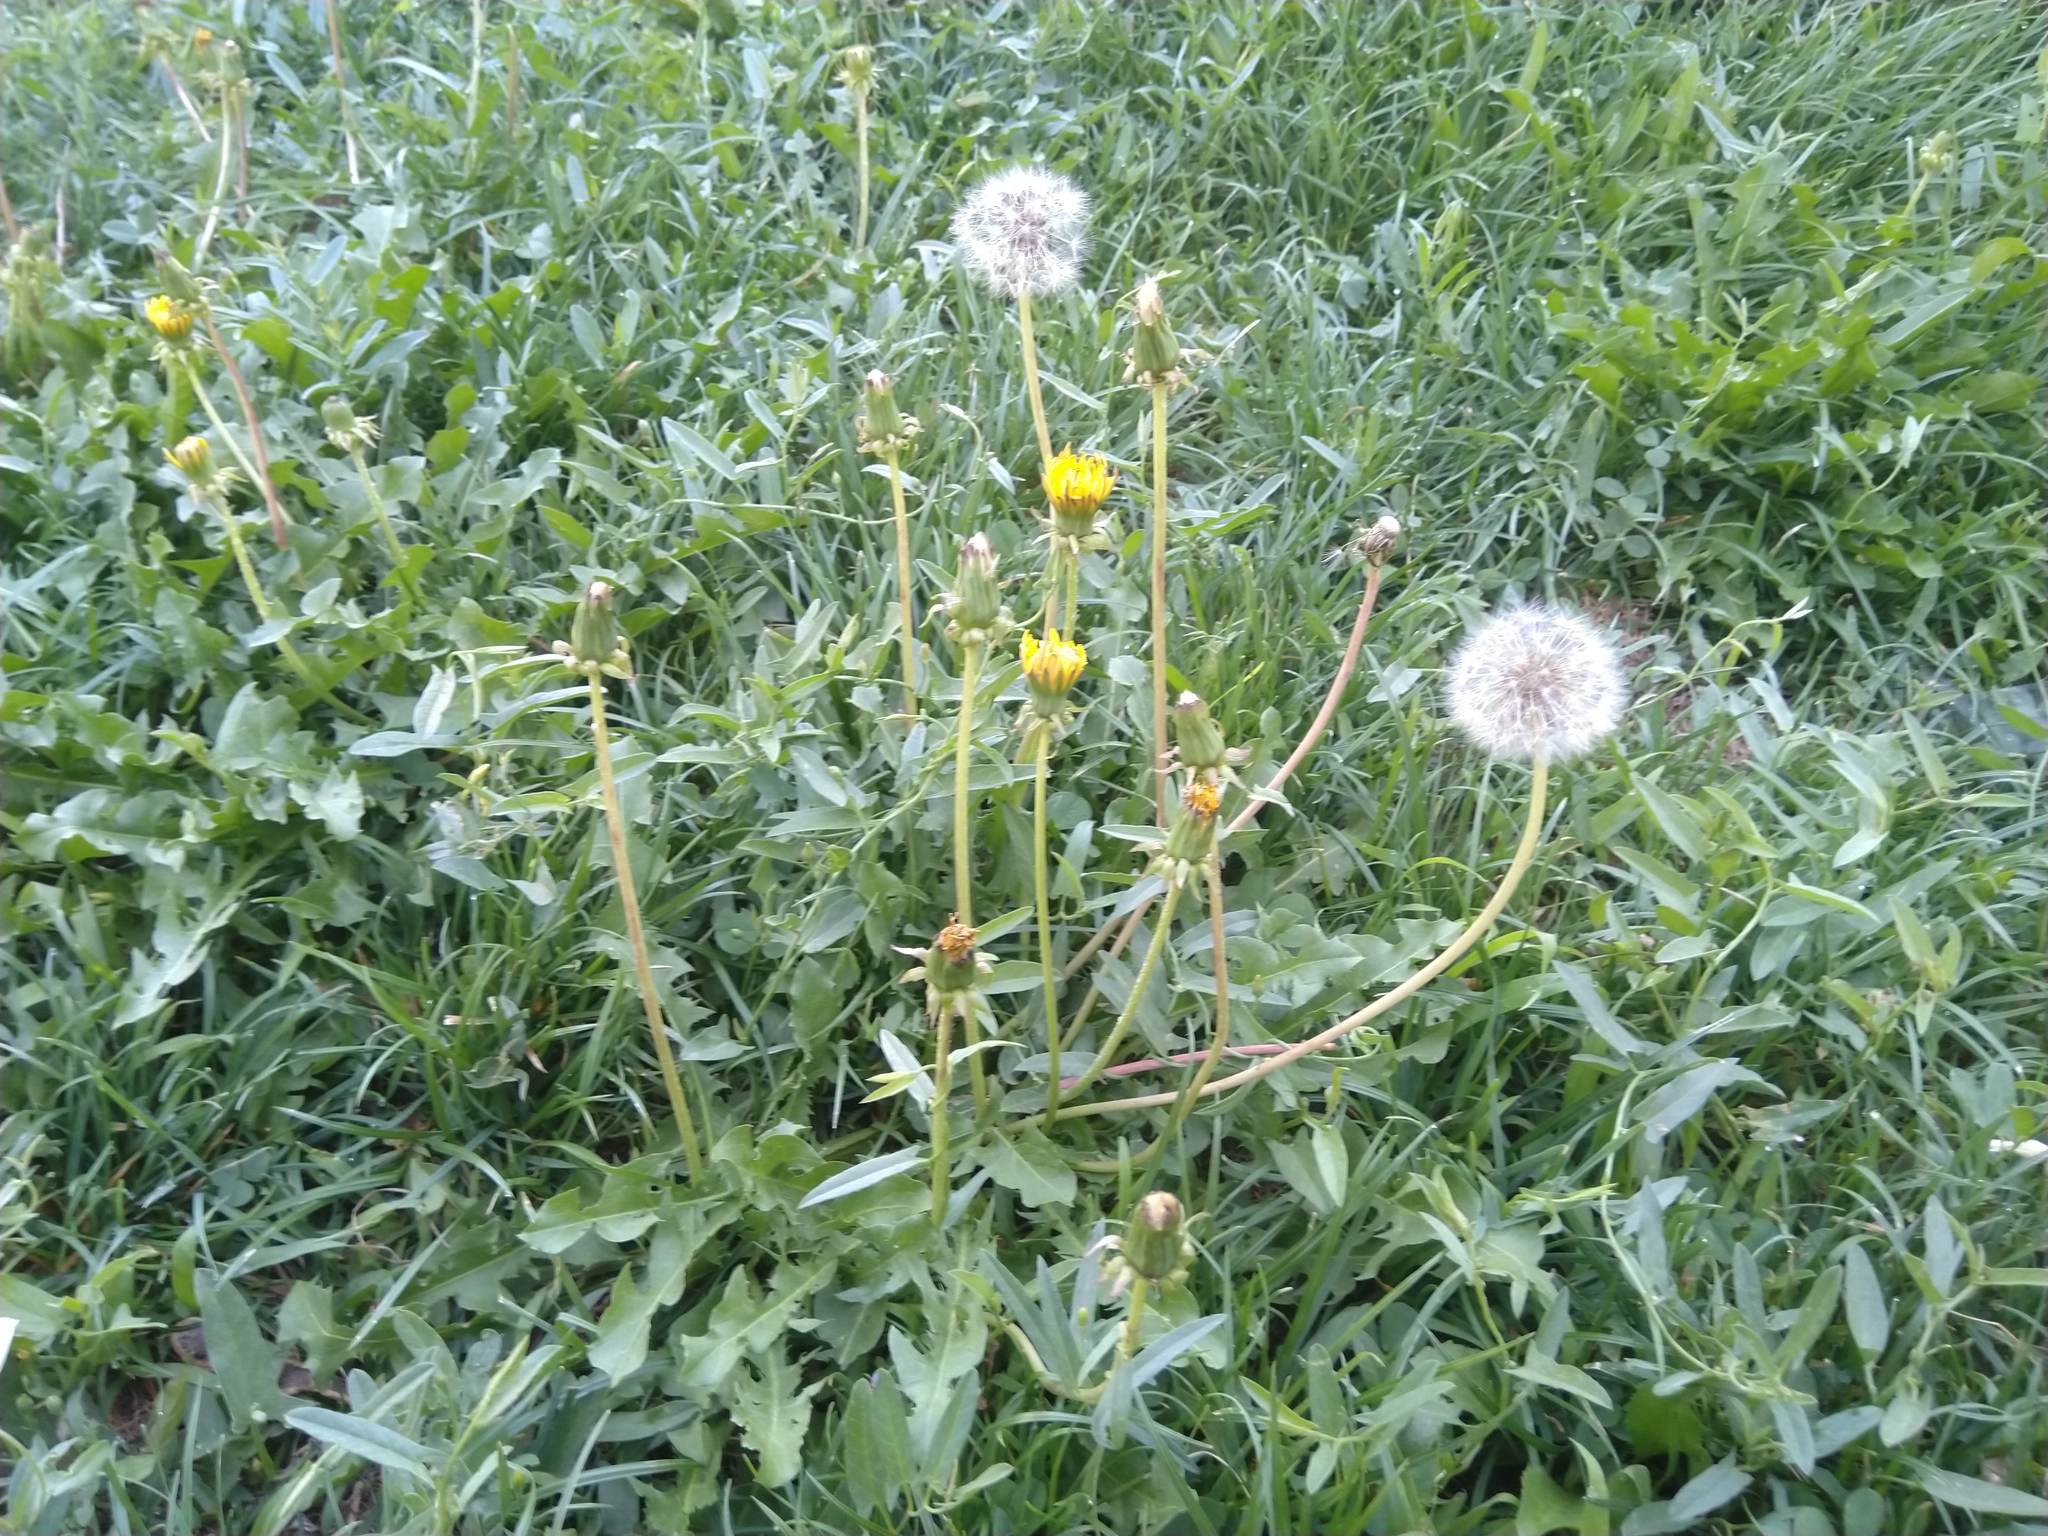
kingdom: Plantae
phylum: Tracheophyta
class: Magnoliopsida
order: Asterales
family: Asteraceae
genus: Taraxacum
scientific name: Taraxacum officinale
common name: Common dandelion
